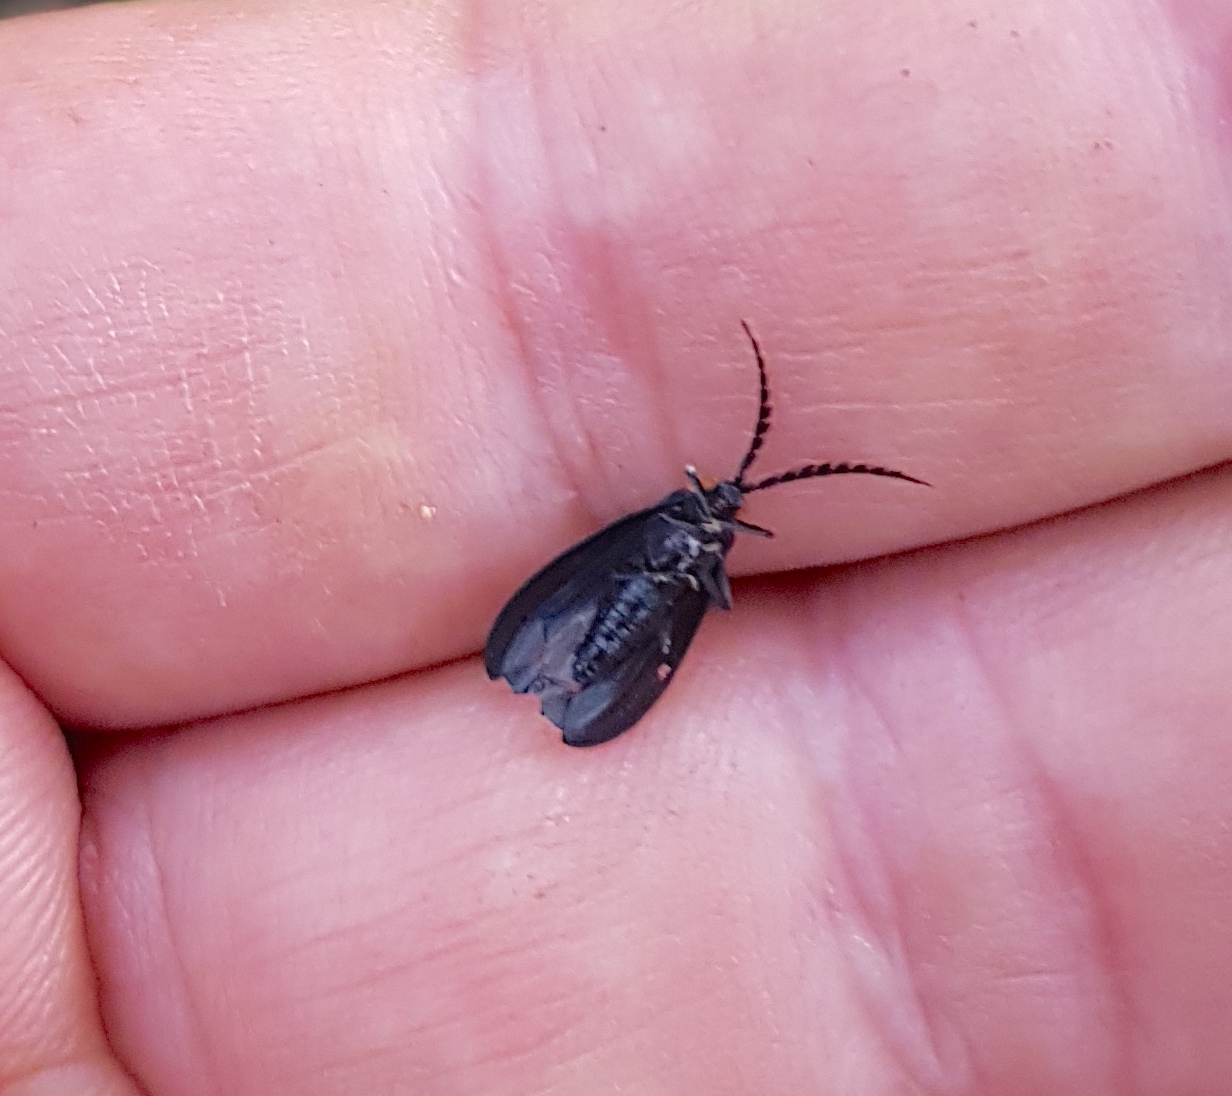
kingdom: Animalia
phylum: Arthropoda
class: Insecta
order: Coleoptera
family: Lycidae
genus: Idiopteron
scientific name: Idiopteron
